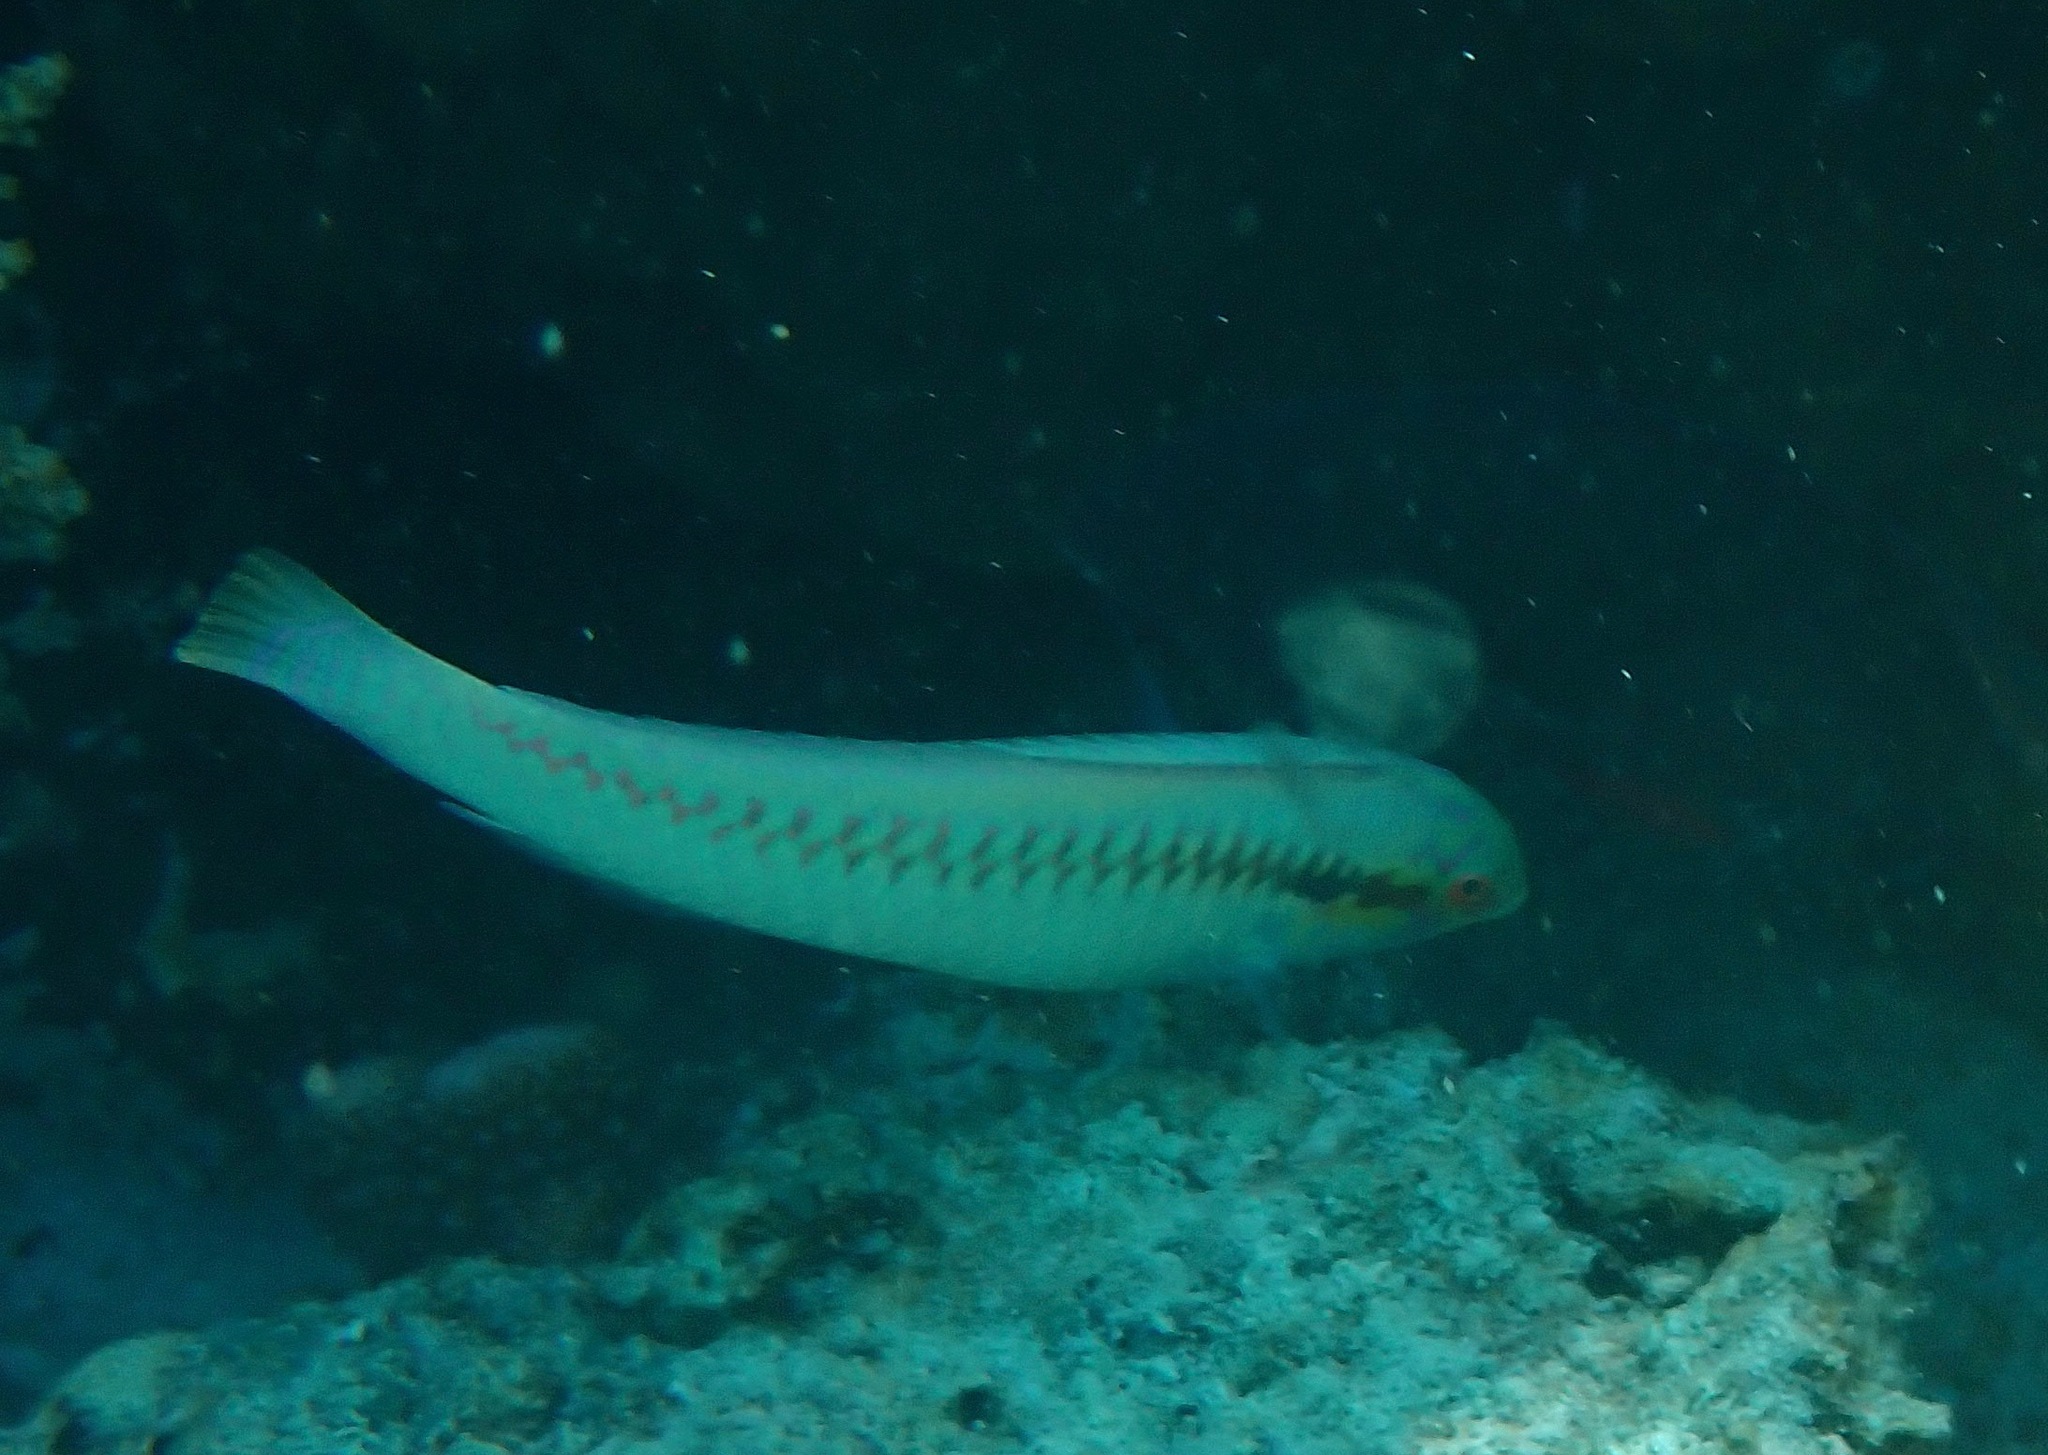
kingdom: Animalia
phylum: Chordata
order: Perciformes
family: Labridae
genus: Halichoeres
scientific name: Halichoeres scapularis
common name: Brownbanded wrasse
